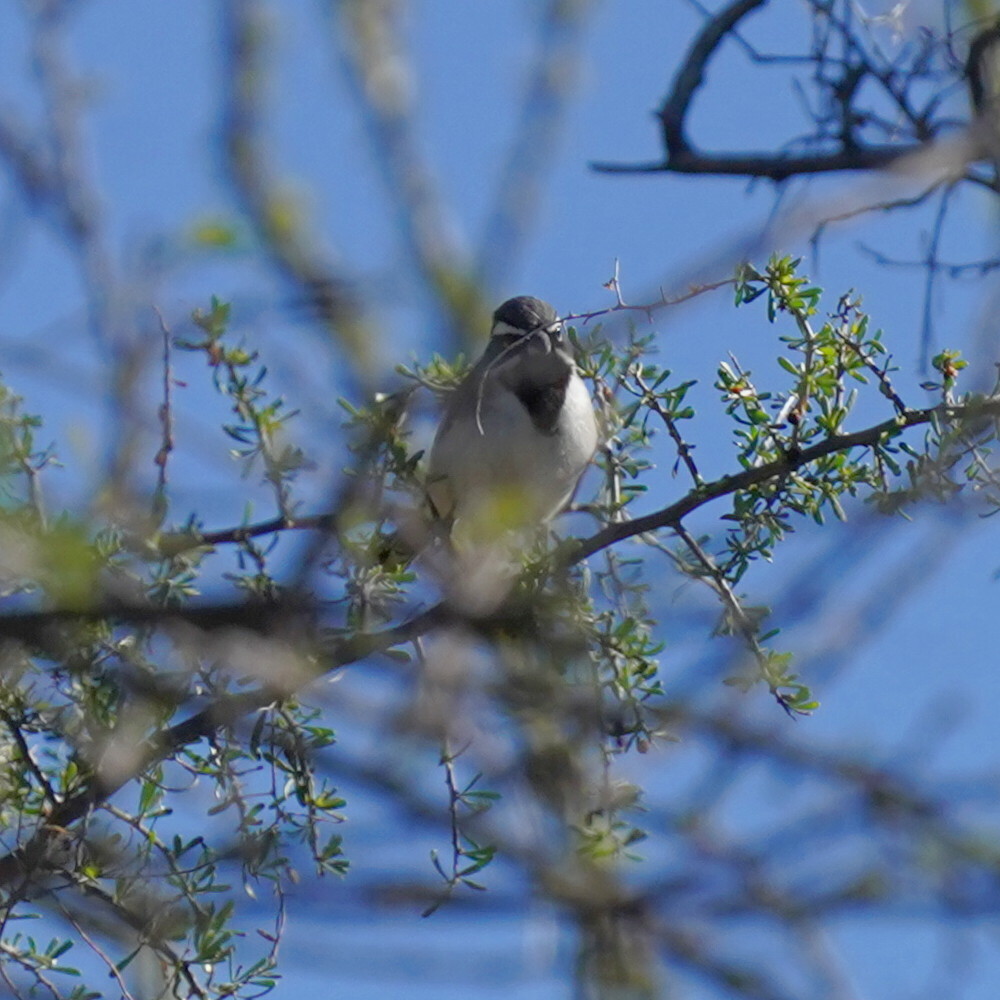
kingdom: Animalia
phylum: Chordata
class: Aves
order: Passeriformes
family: Passerellidae
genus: Amphispiza
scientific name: Amphispiza bilineata
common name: Black-throated sparrow
